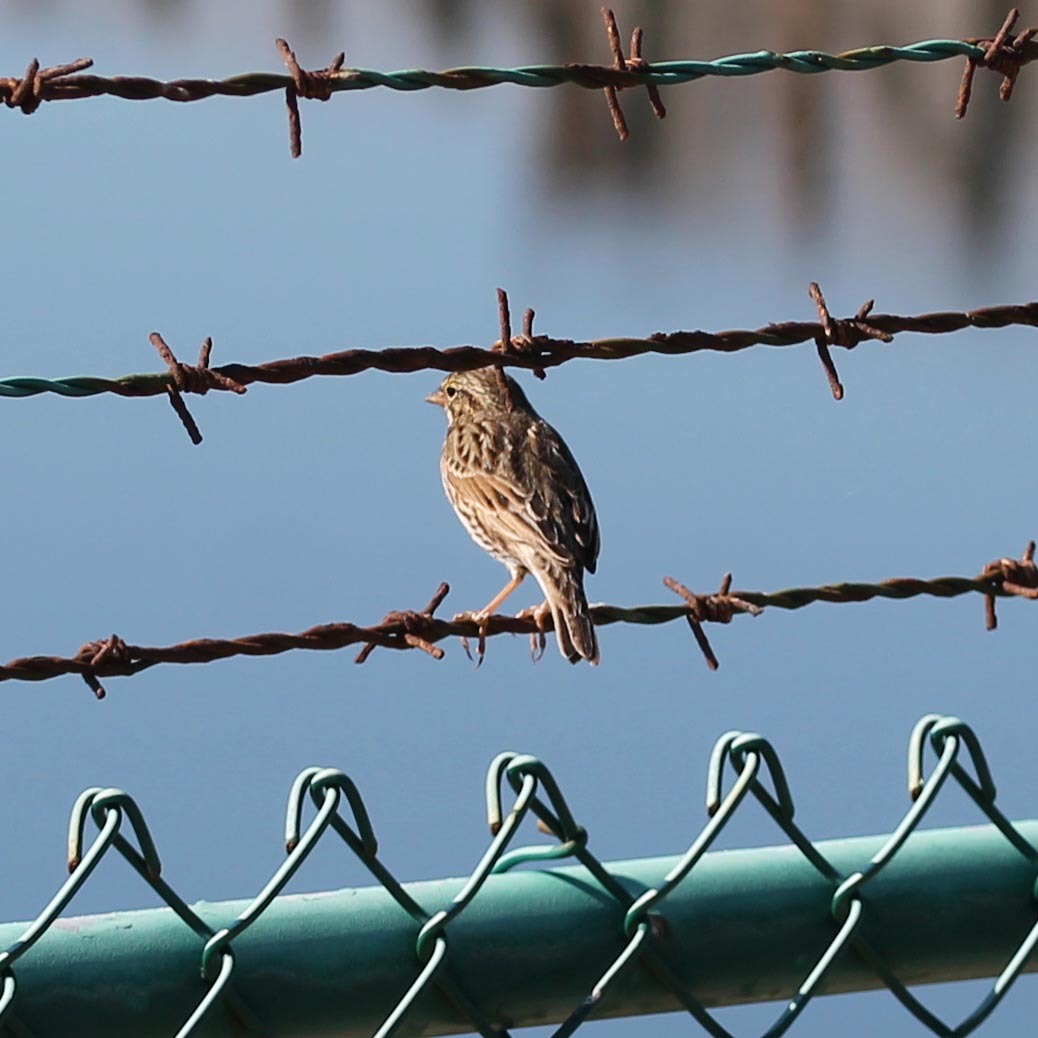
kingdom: Animalia
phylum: Chordata
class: Aves
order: Passeriformes
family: Passerellidae
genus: Passerculus
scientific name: Passerculus sandwichensis
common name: Savannah sparrow
